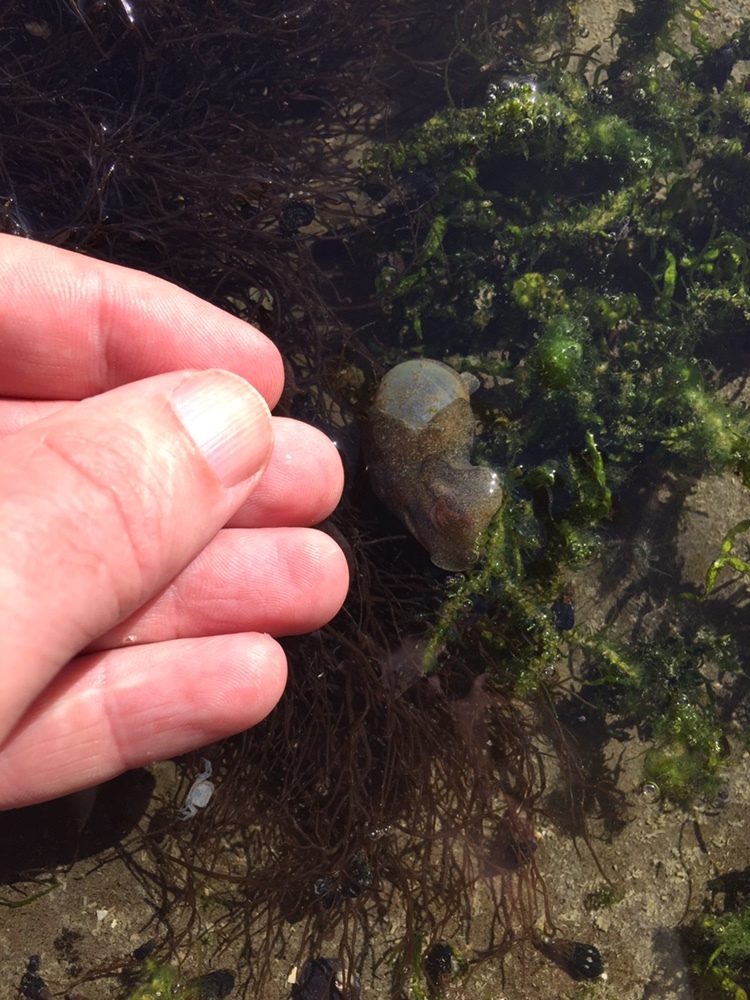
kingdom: Animalia
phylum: Mollusca
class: Gastropoda
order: Cephalaspidea
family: Haminoeidae
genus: Papawera
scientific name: Papawera zelandiae
